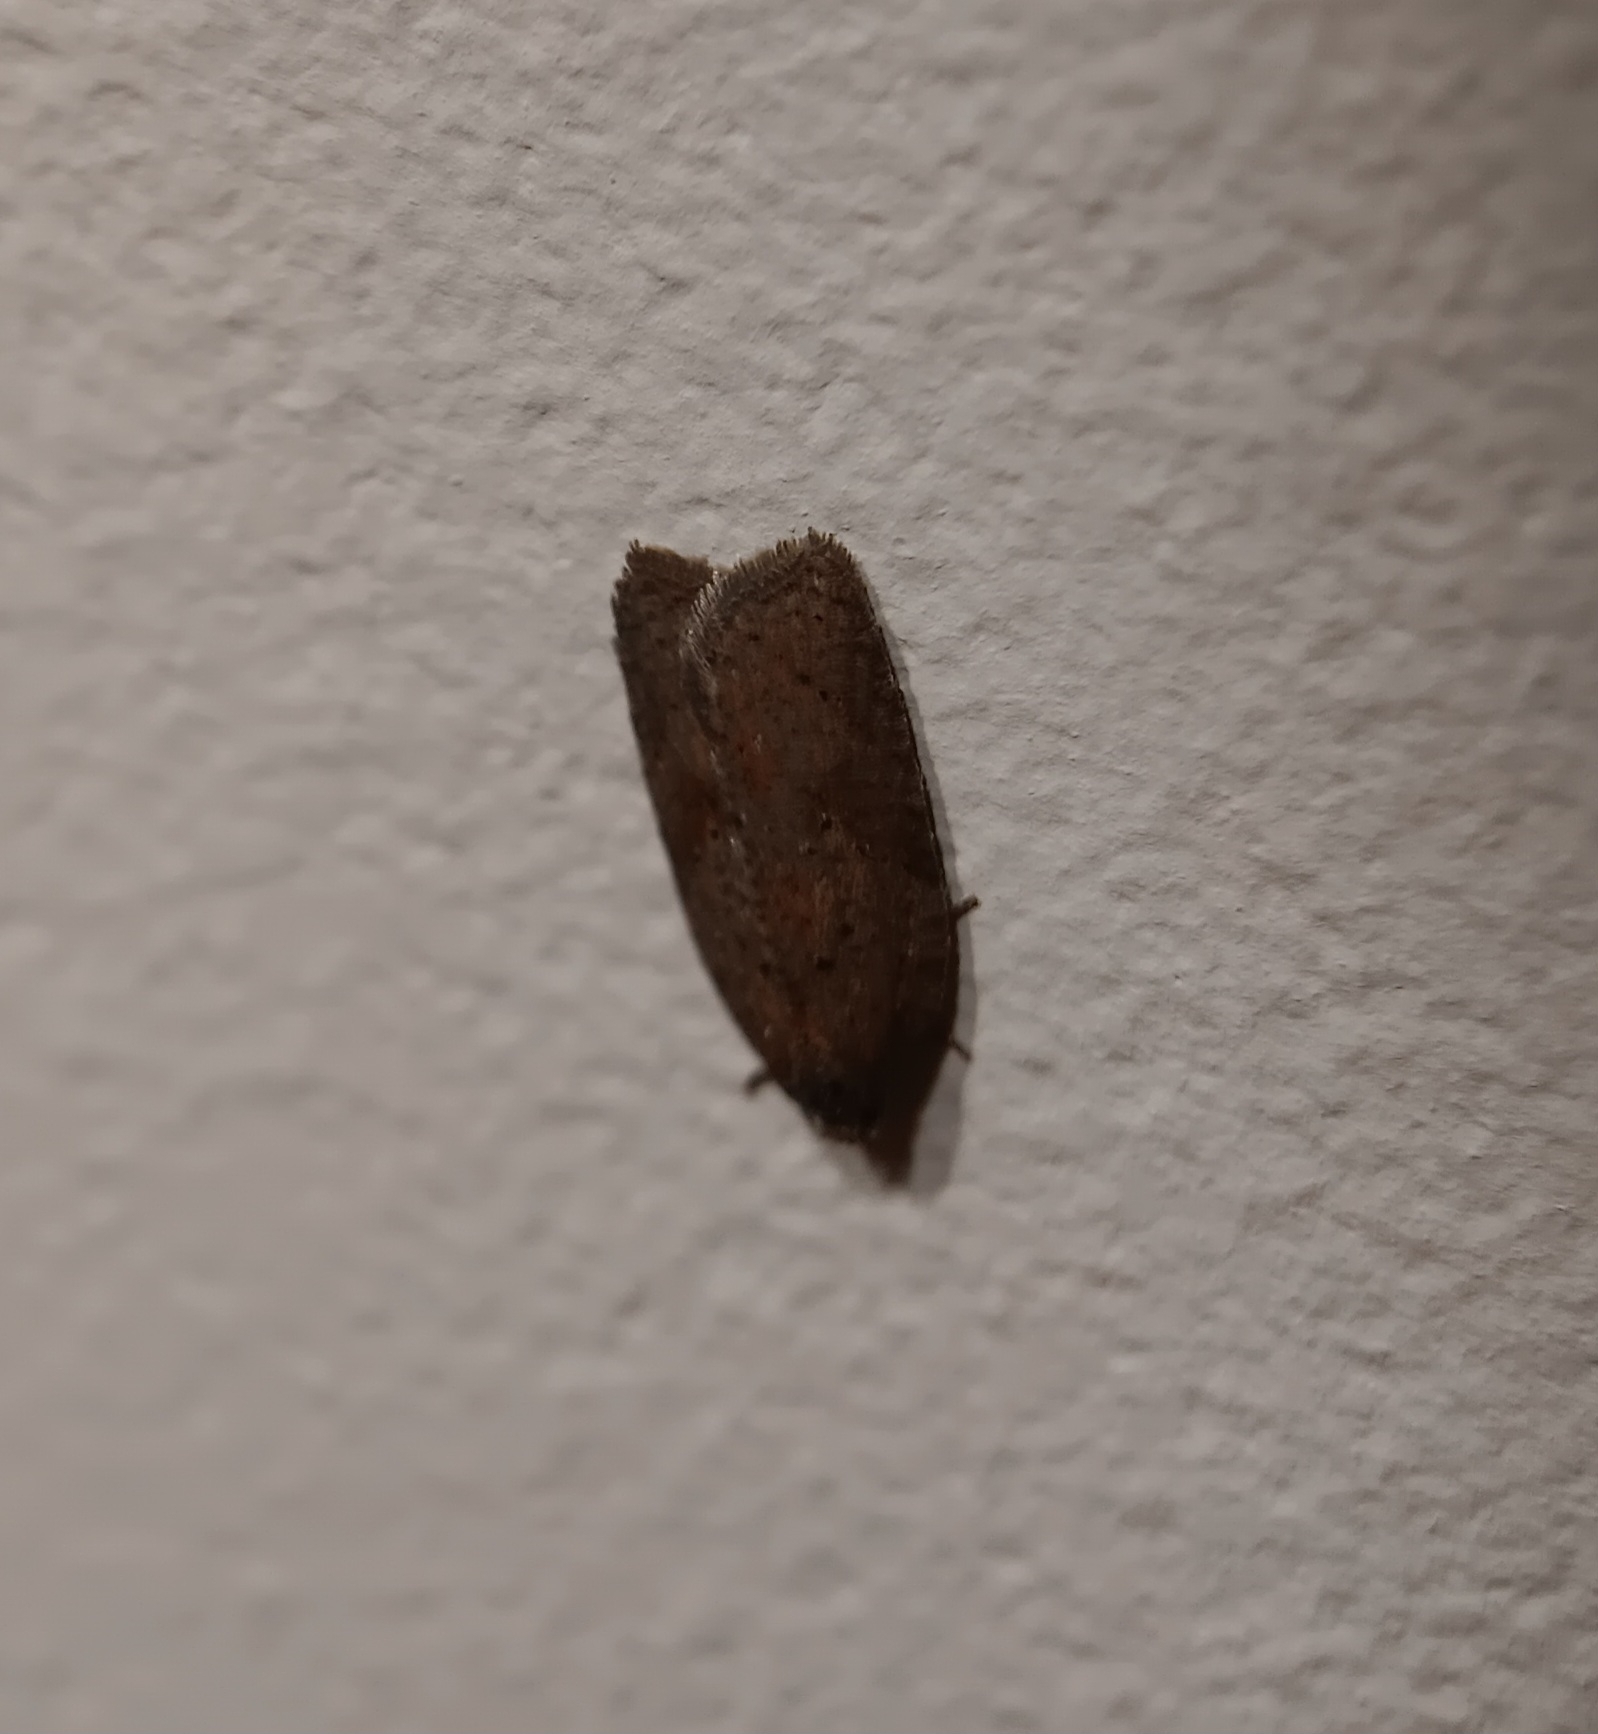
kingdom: Animalia
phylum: Arthropoda
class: Insecta
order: Lepidoptera
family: Tortricidae
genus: Acleris
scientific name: Acleris schalleriana
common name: Viburnum button
